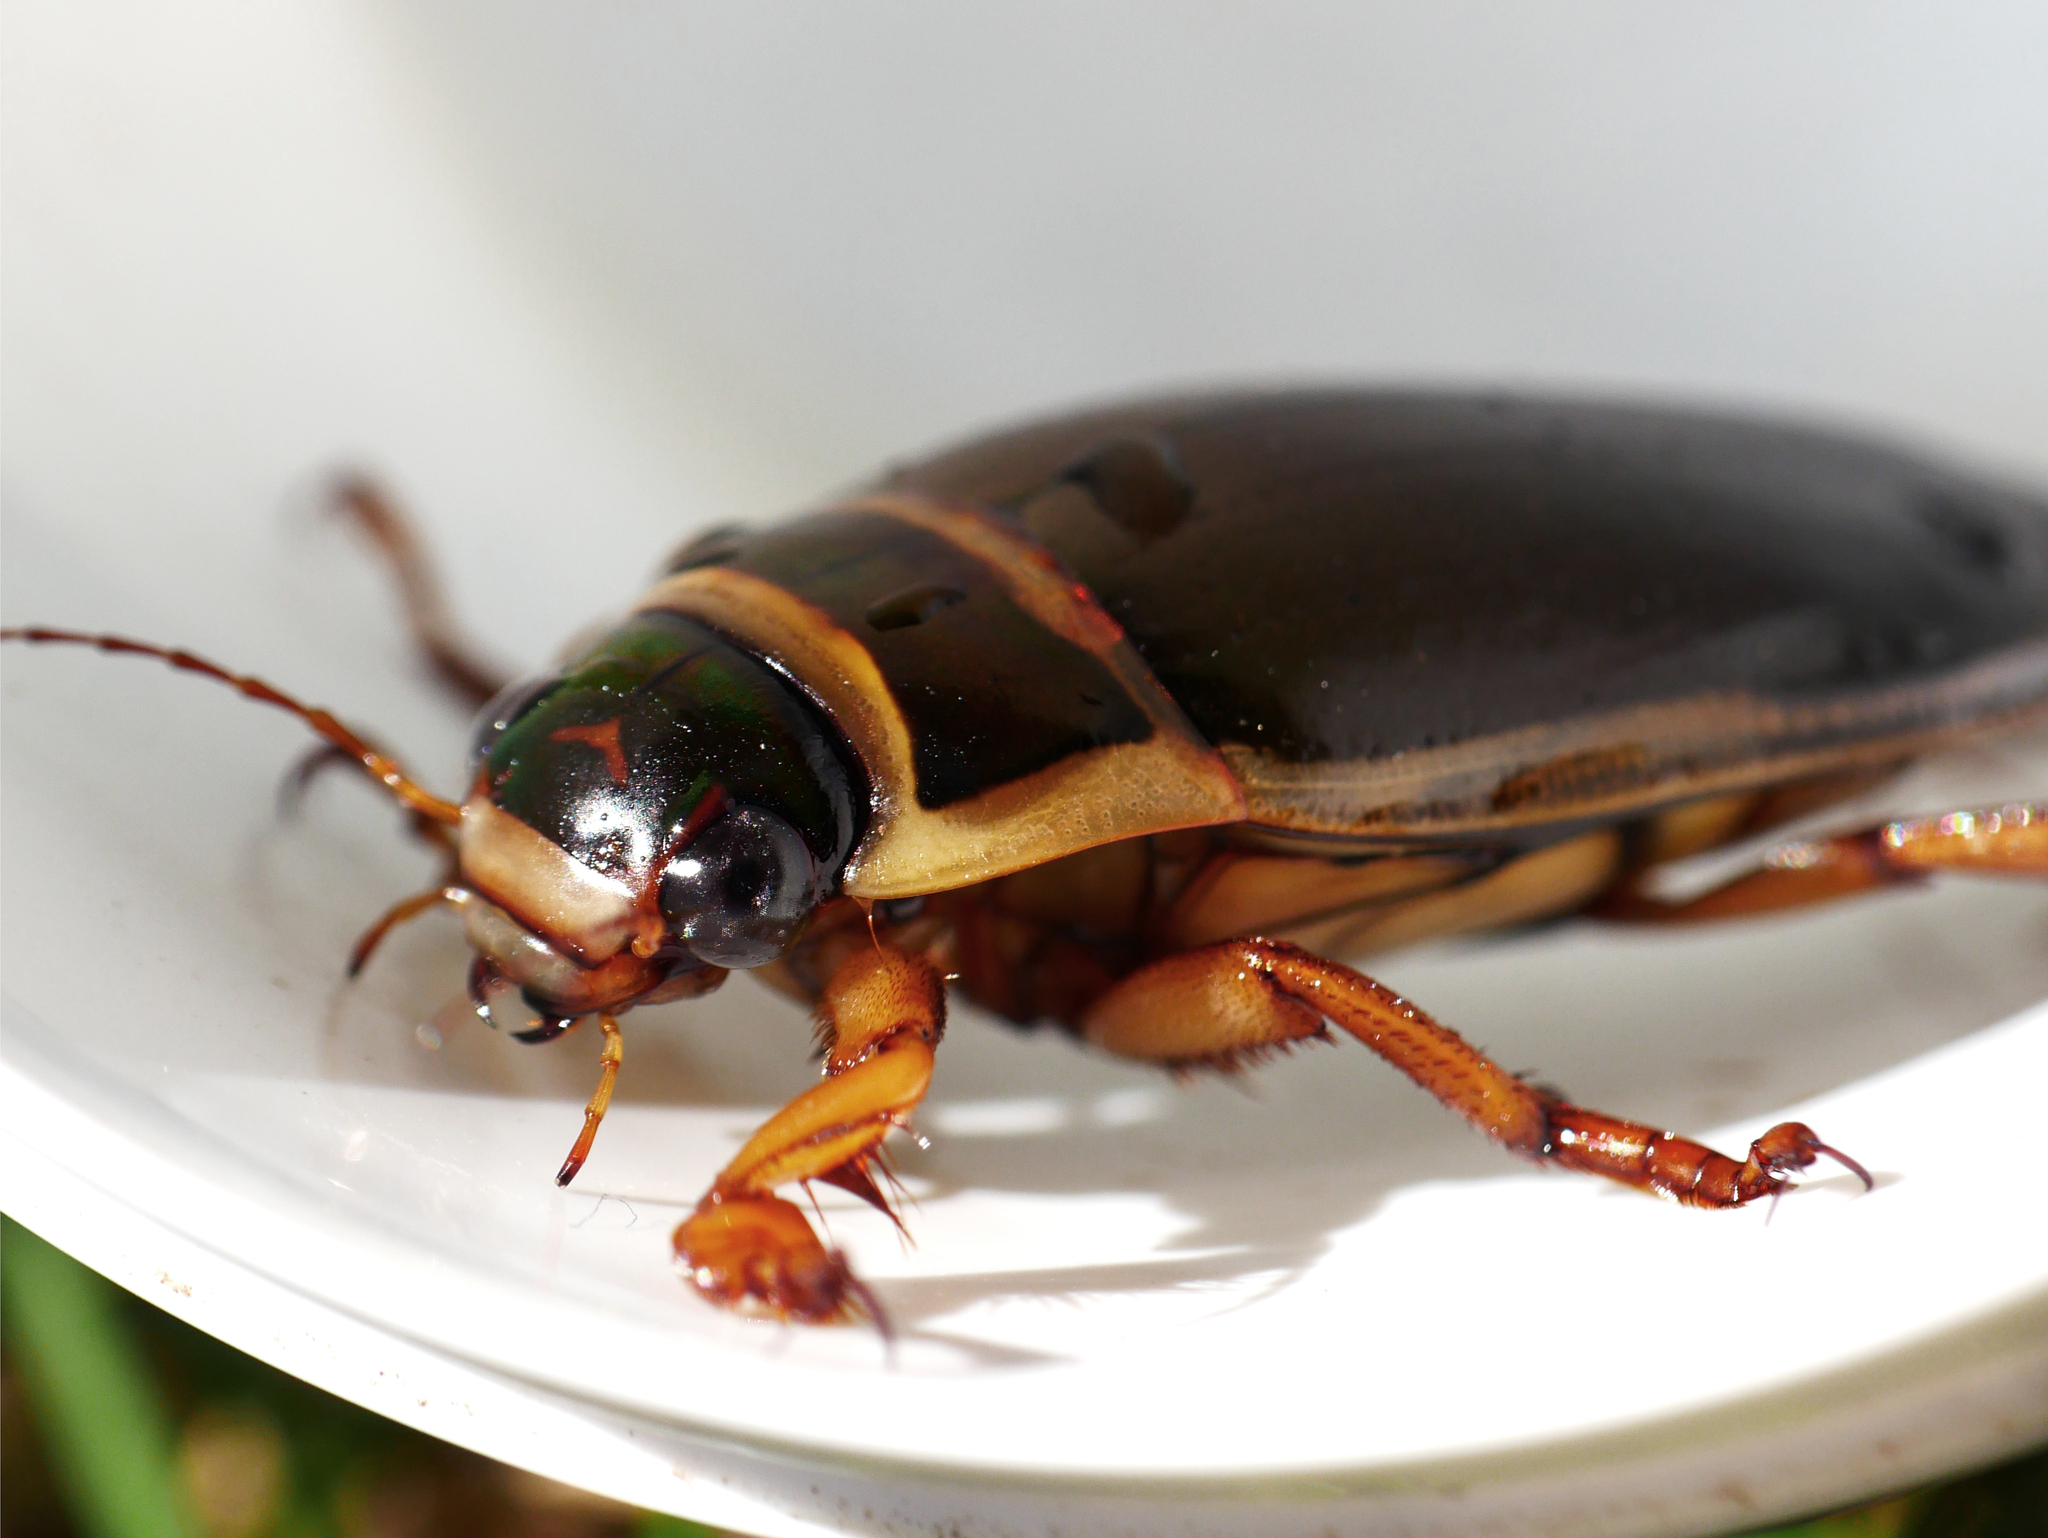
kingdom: Animalia
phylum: Arthropoda
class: Insecta
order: Coleoptera
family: Dytiscidae
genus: Dytiscus
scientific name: Dytiscus marginalis
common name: Great water beetle
